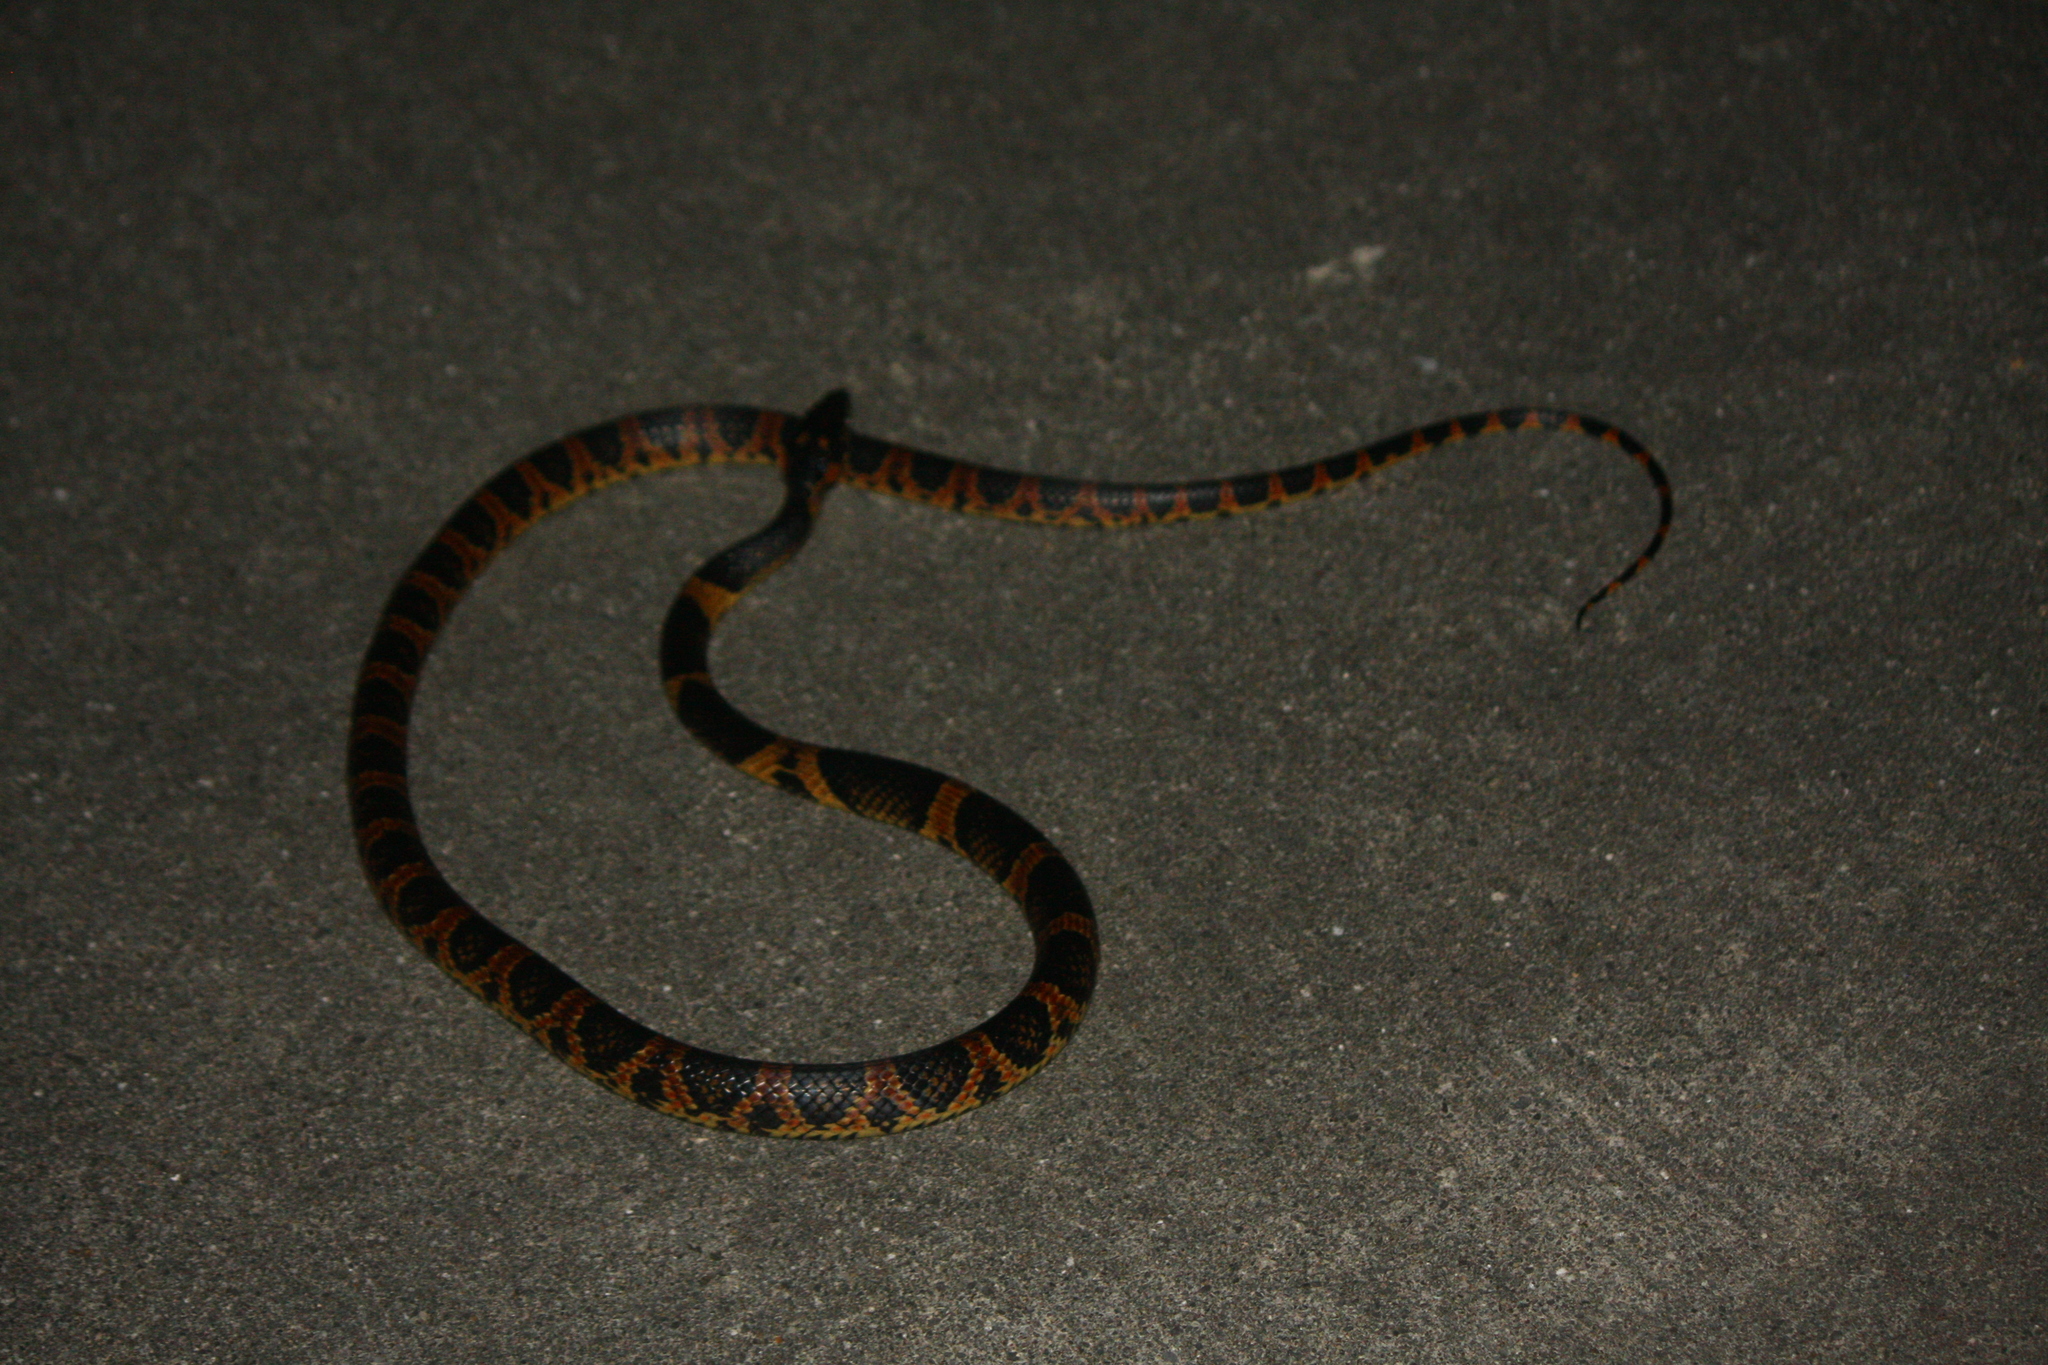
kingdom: Animalia
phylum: Chordata
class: Squamata
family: Colubridae
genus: Lycodon
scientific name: Lycodon semicarinatus
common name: Loo-choo big-tooth snake
